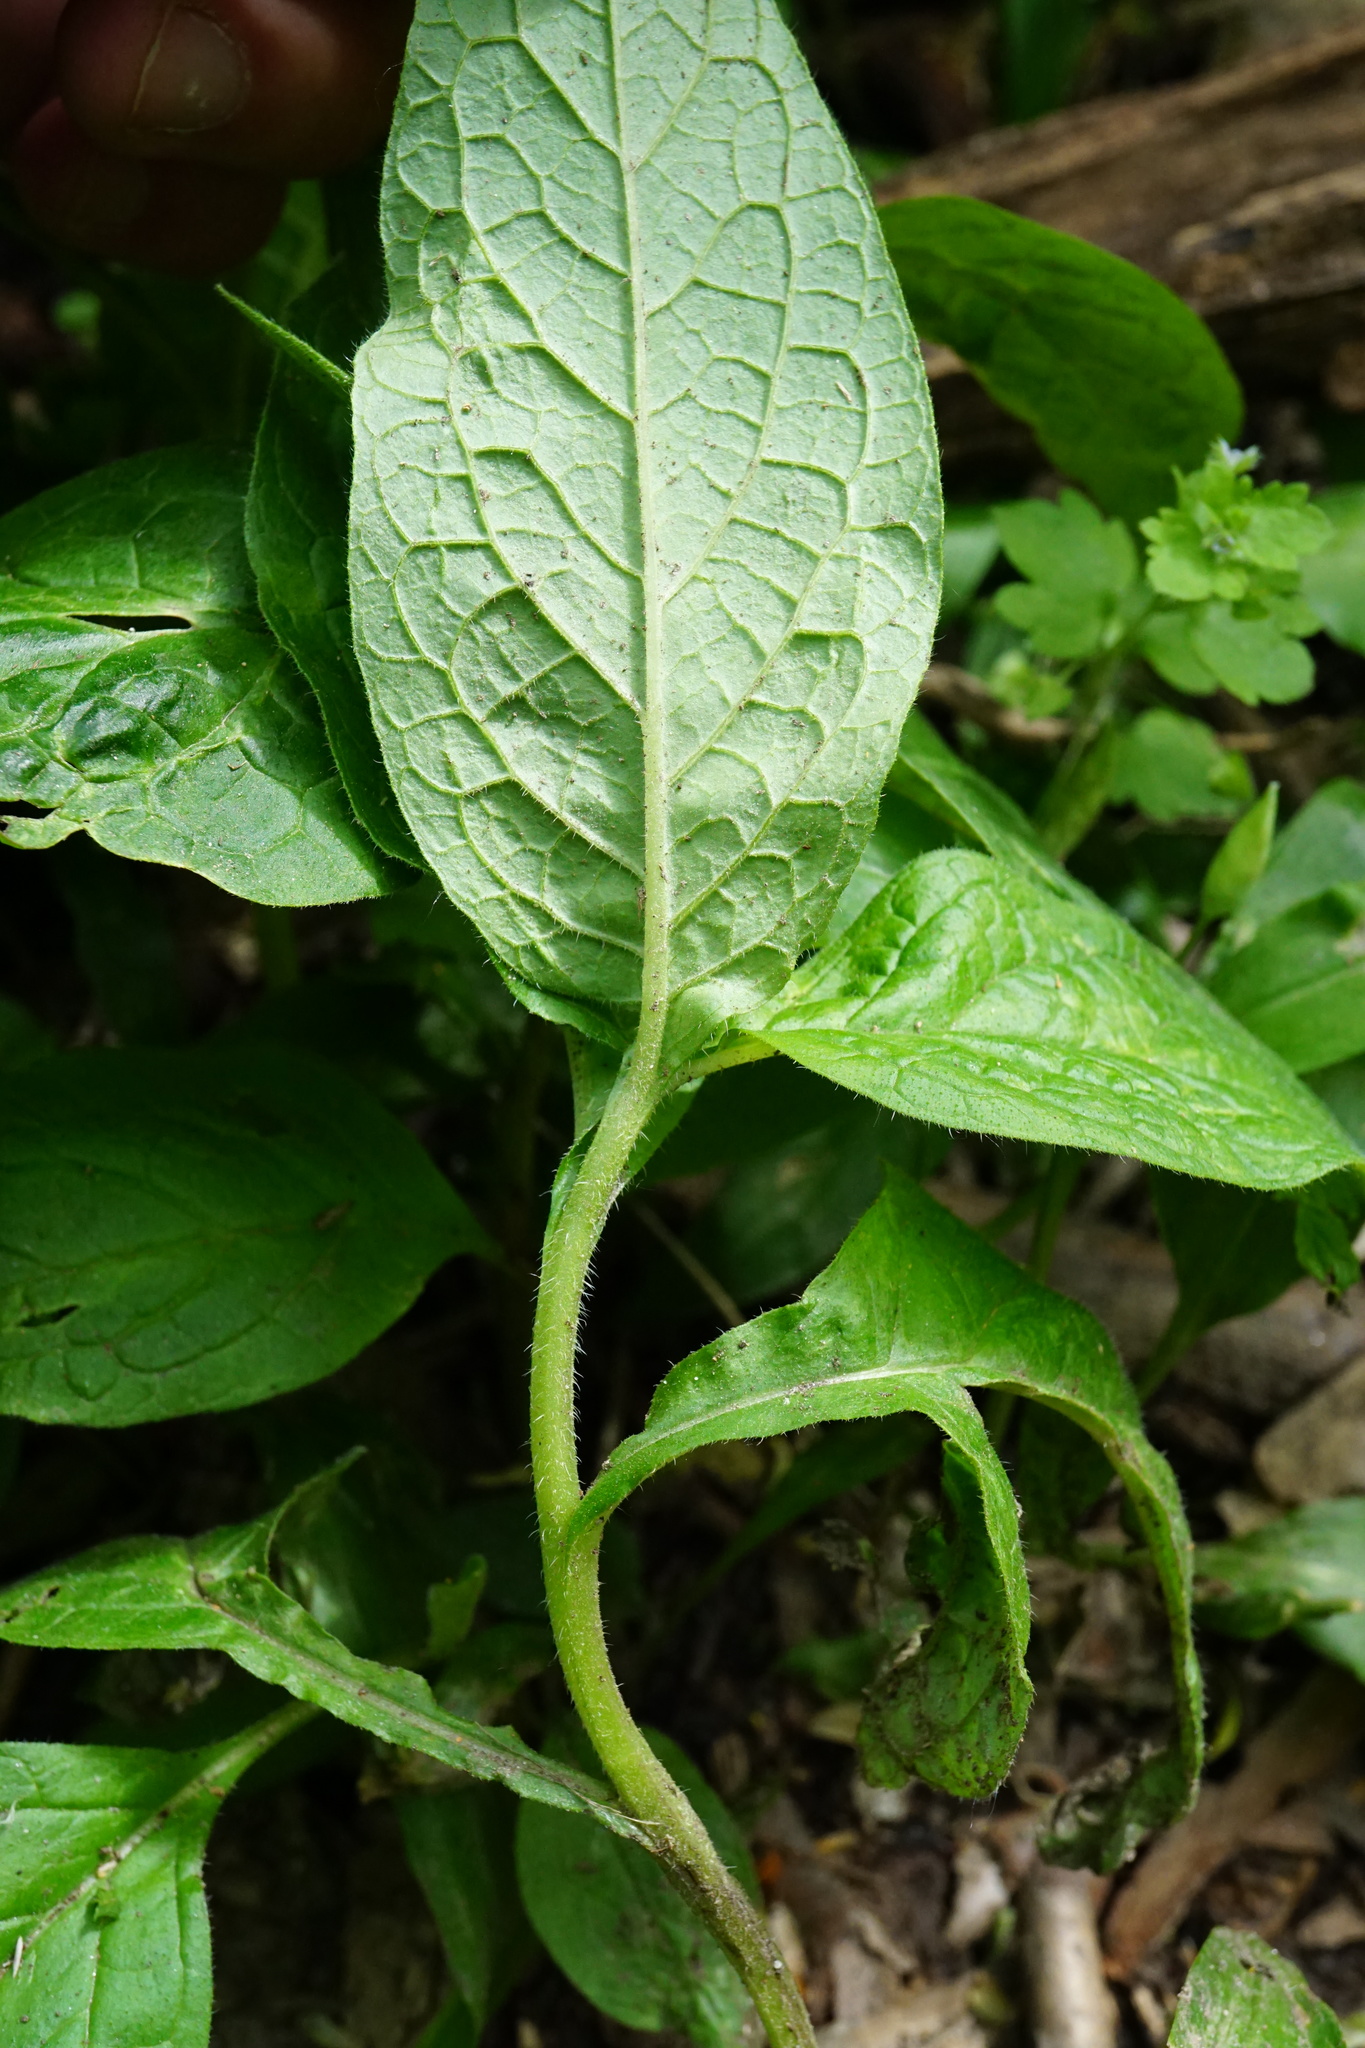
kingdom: Plantae
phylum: Tracheophyta
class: Magnoliopsida
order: Boraginales
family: Boraginaceae
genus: Symphytum
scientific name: Symphytum tuberosum
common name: Tuberous comfrey
